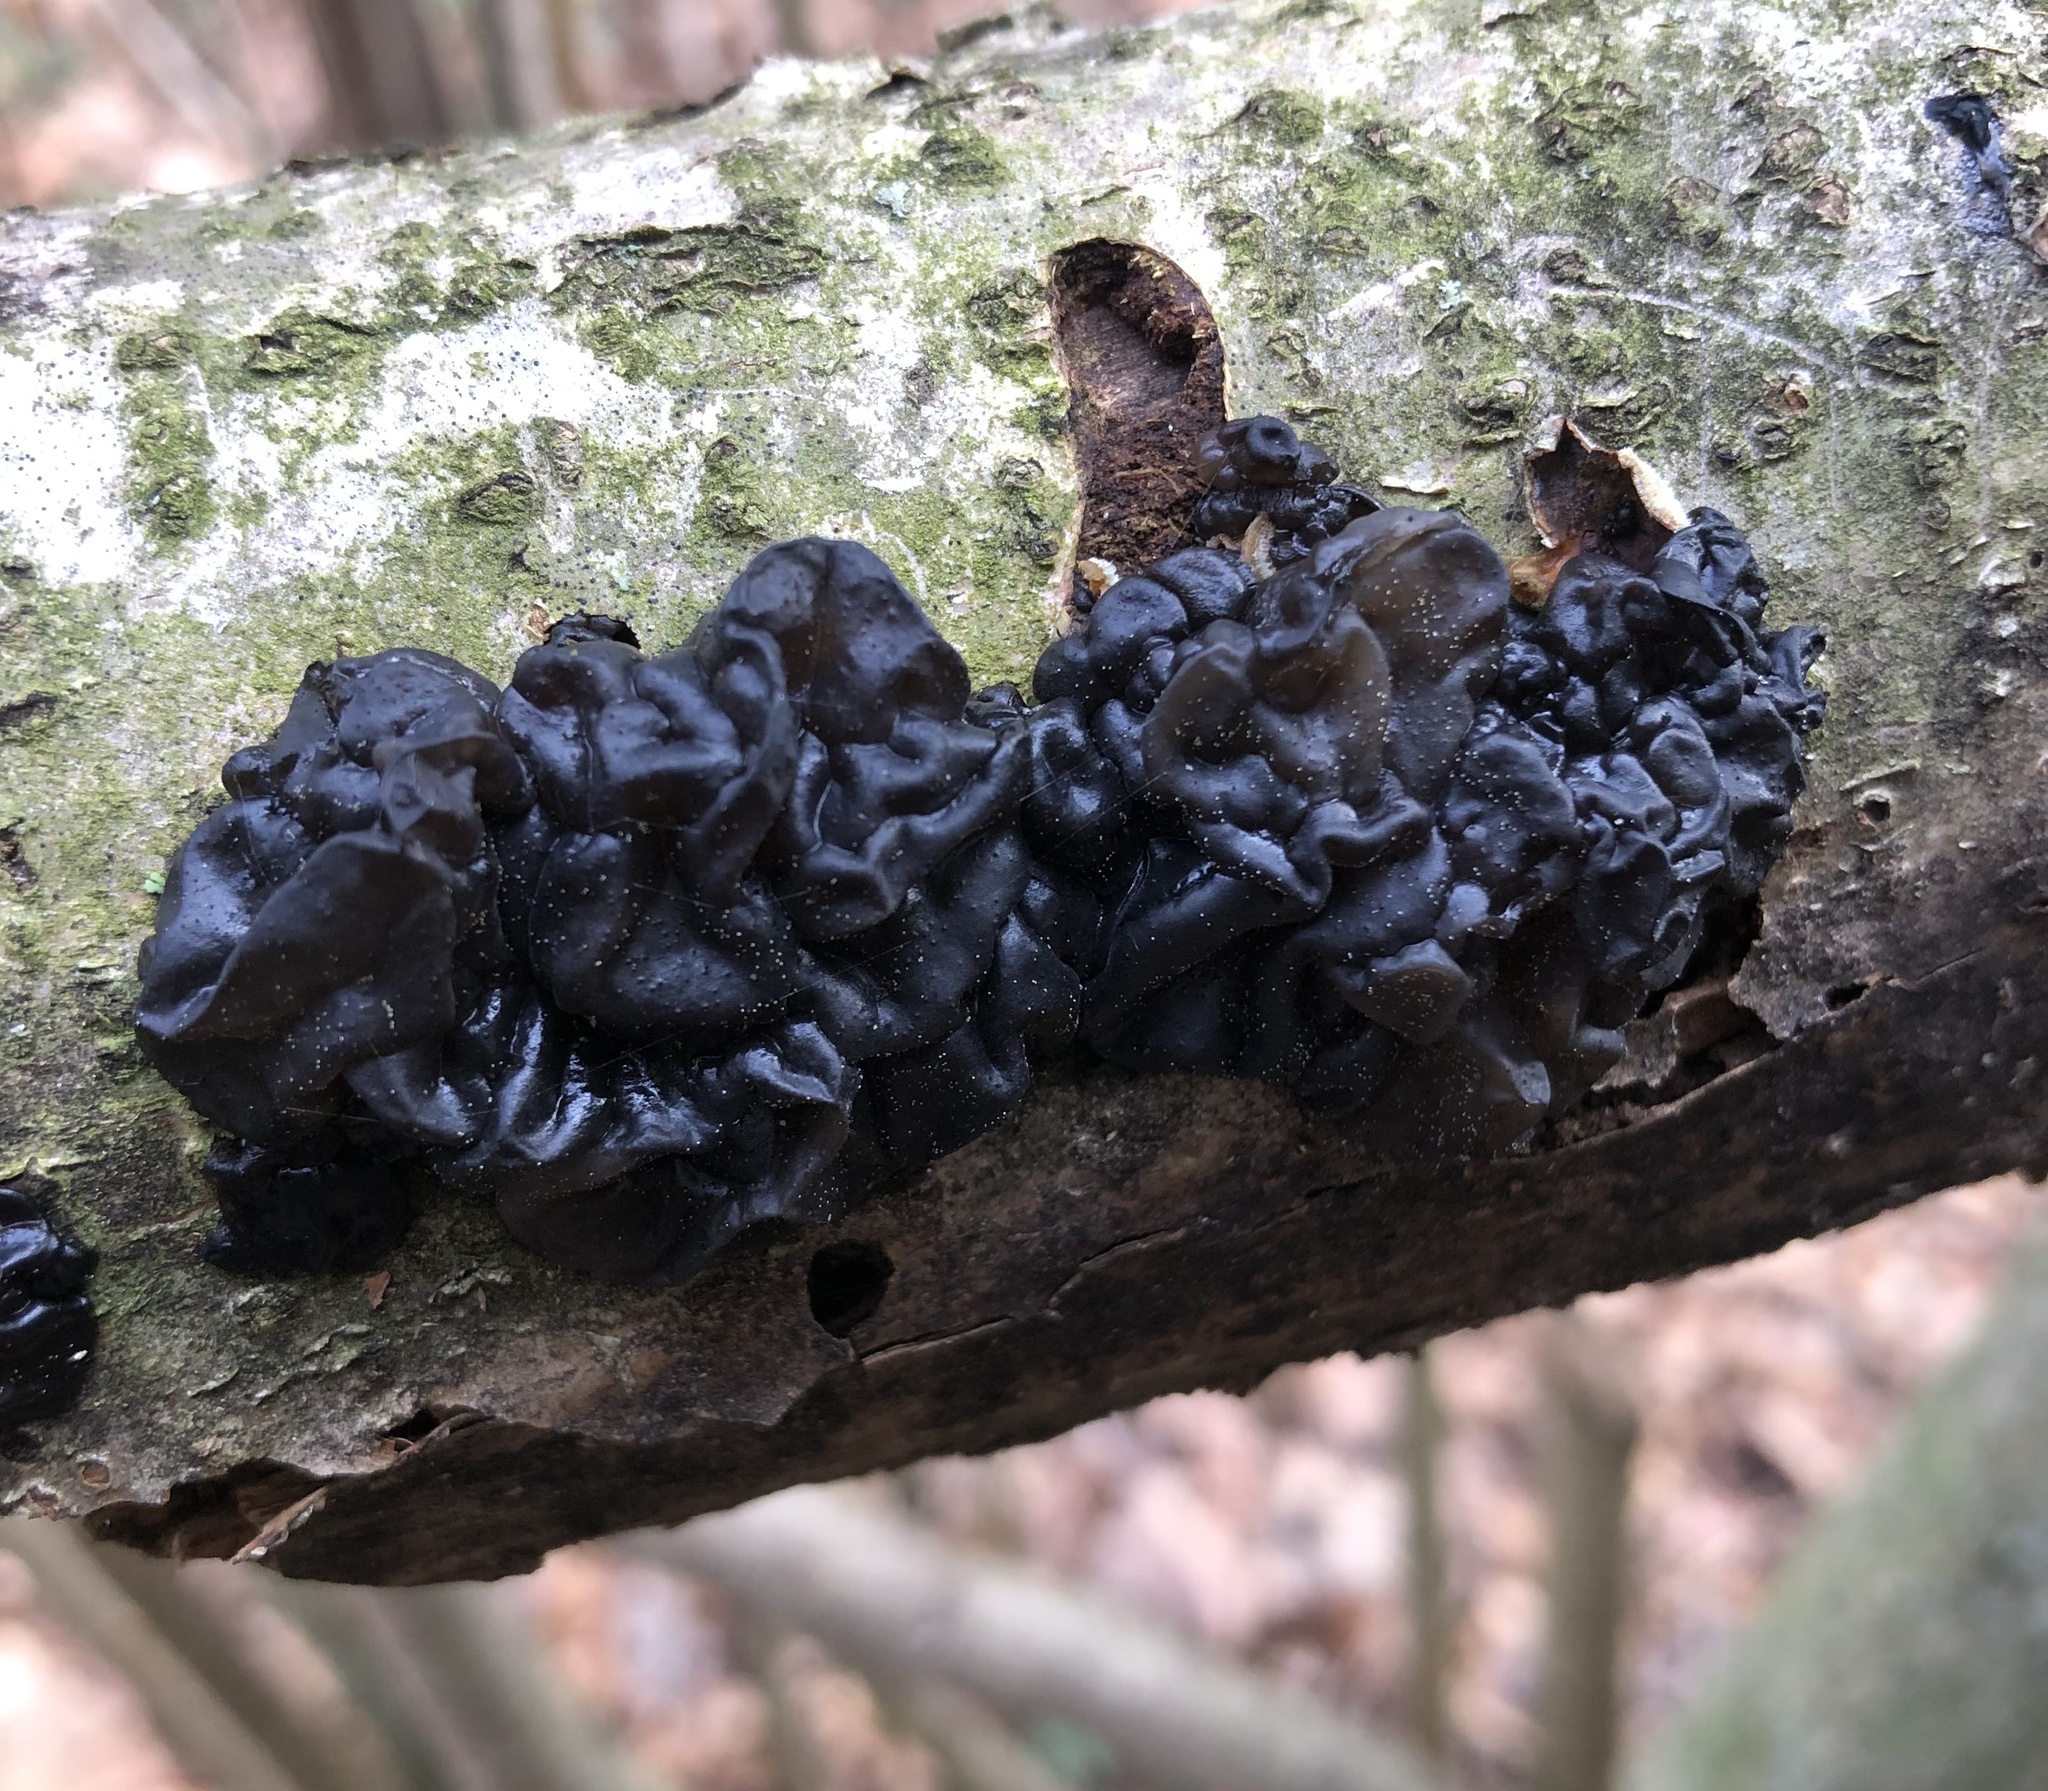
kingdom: Fungi
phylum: Basidiomycota
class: Agaricomycetes
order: Auriculariales
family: Auriculariaceae
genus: Exidia
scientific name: Exidia nigricans
